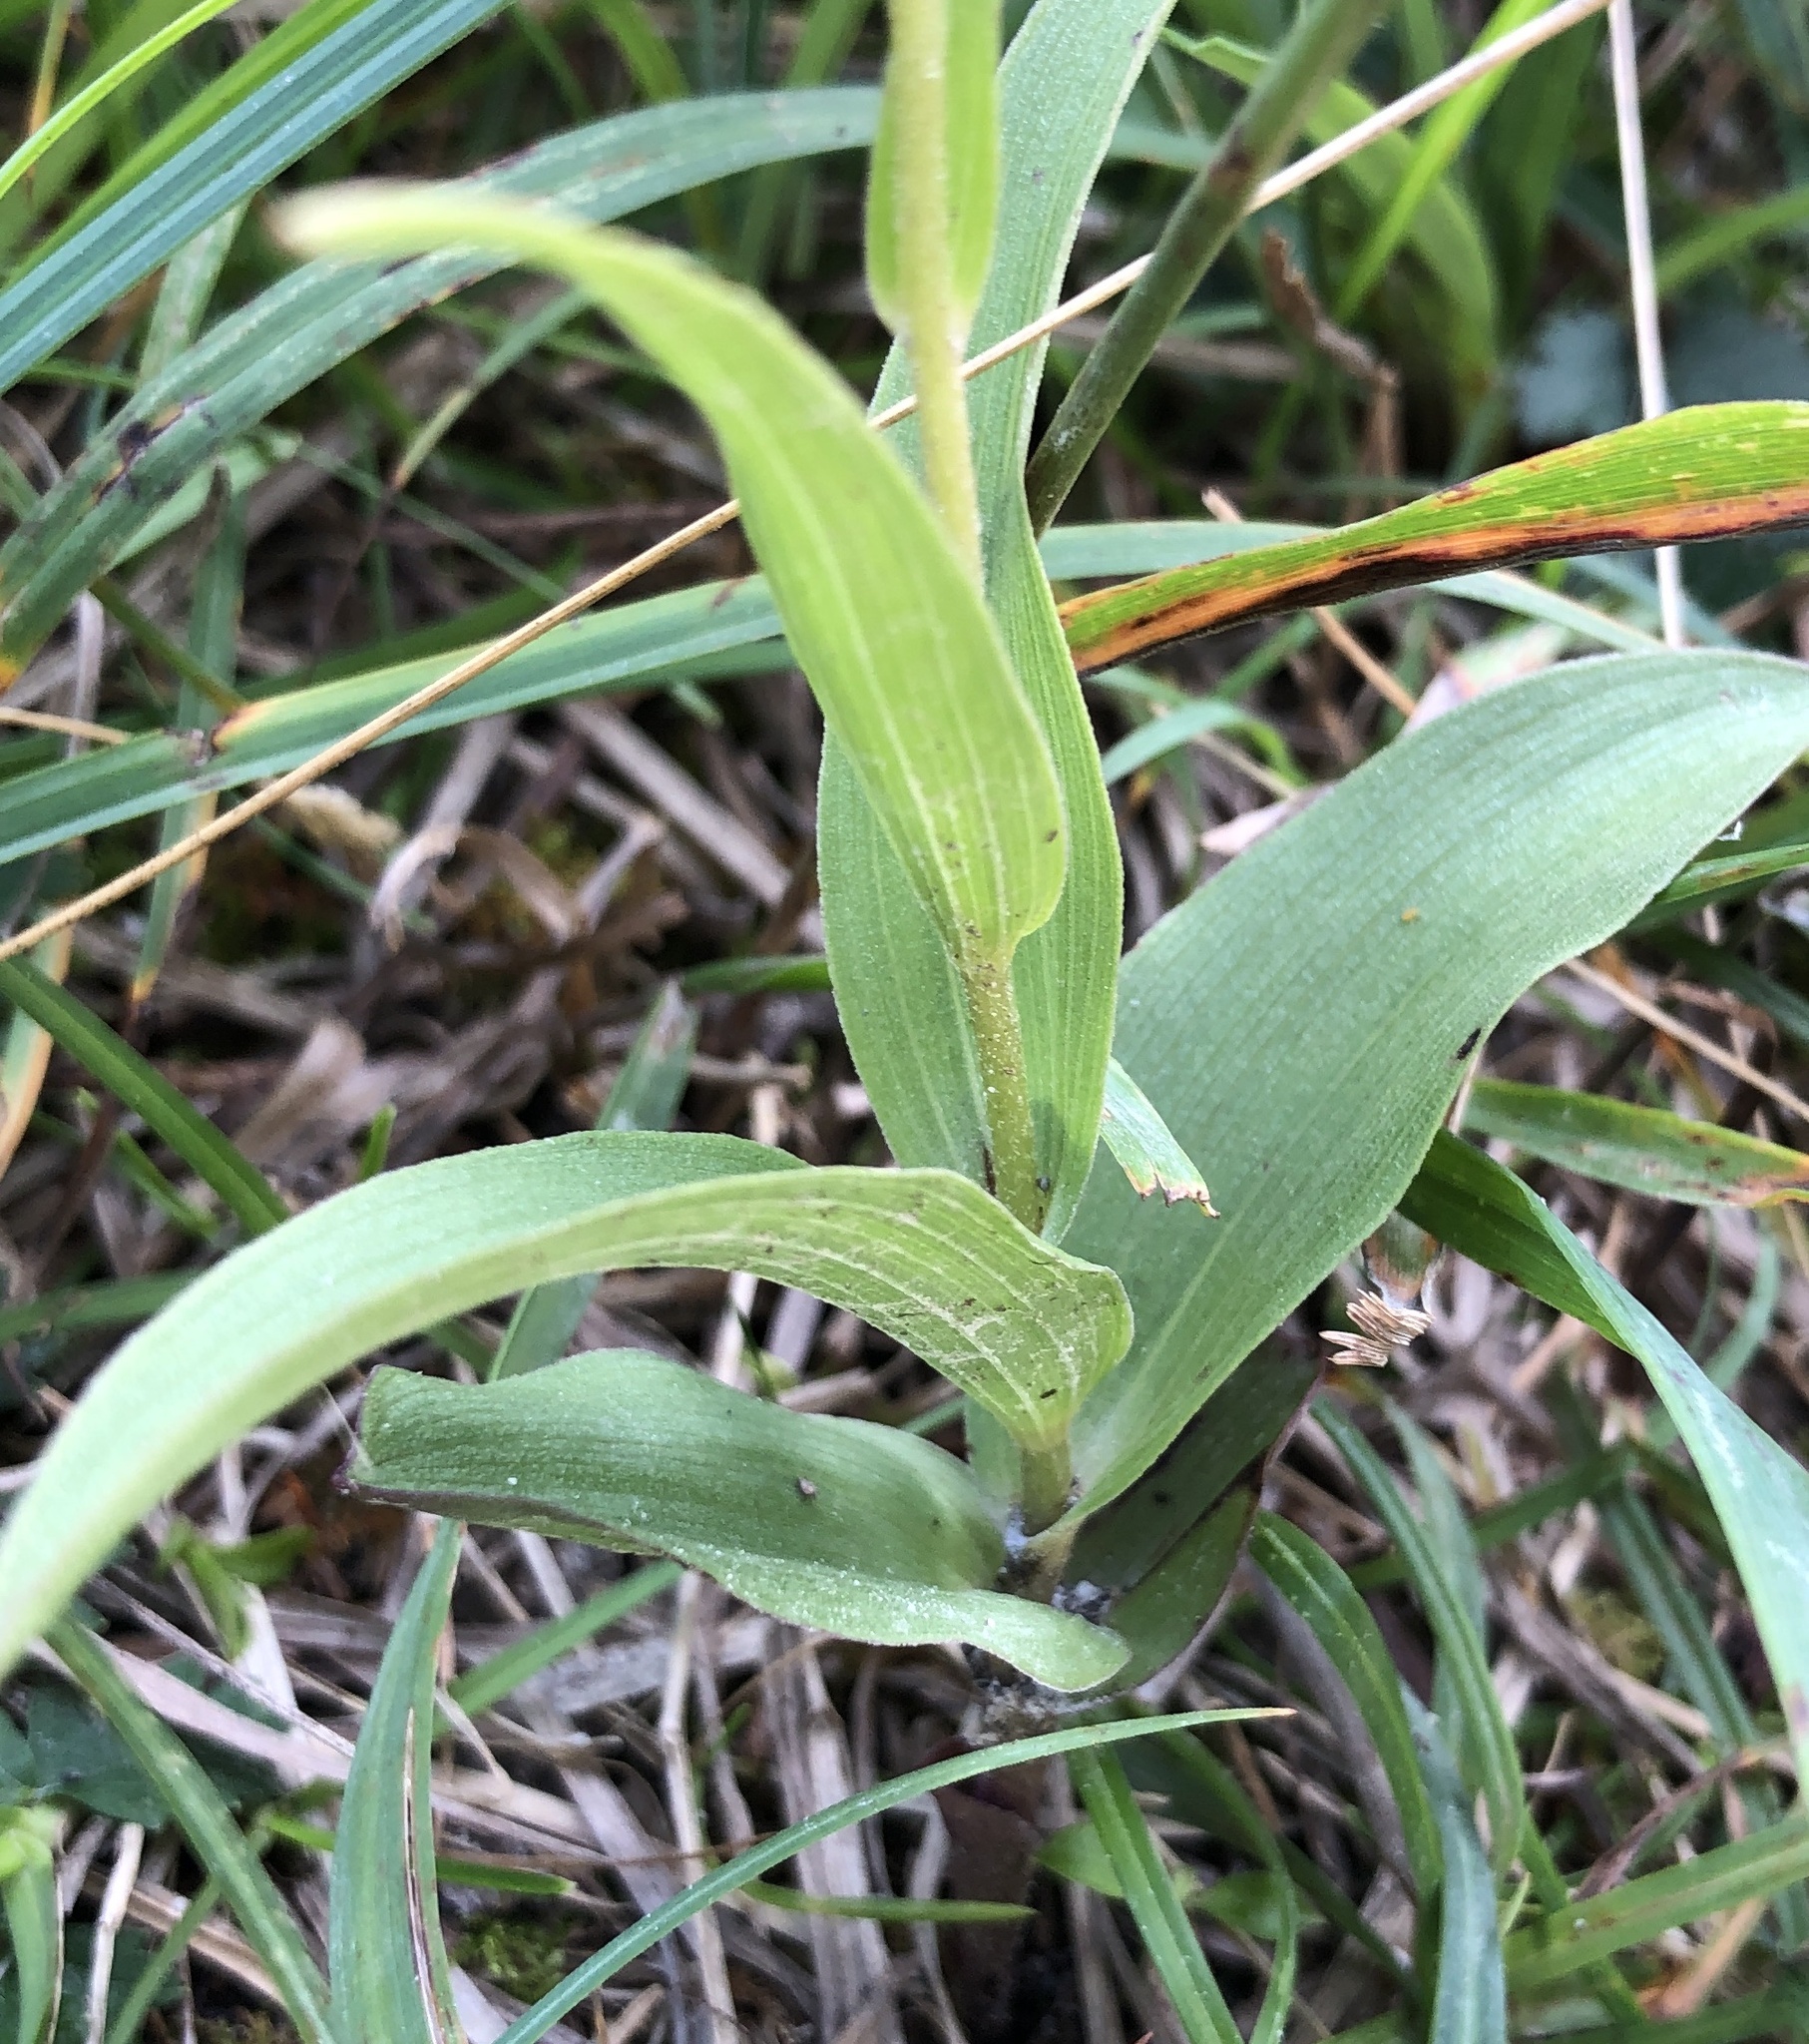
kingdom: Plantae
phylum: Tracheophyta
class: Liliopsida
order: Asparagales
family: Orchidaceae
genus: Epipactis
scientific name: Epipactis atrorubens
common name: Dark-red helleborine
